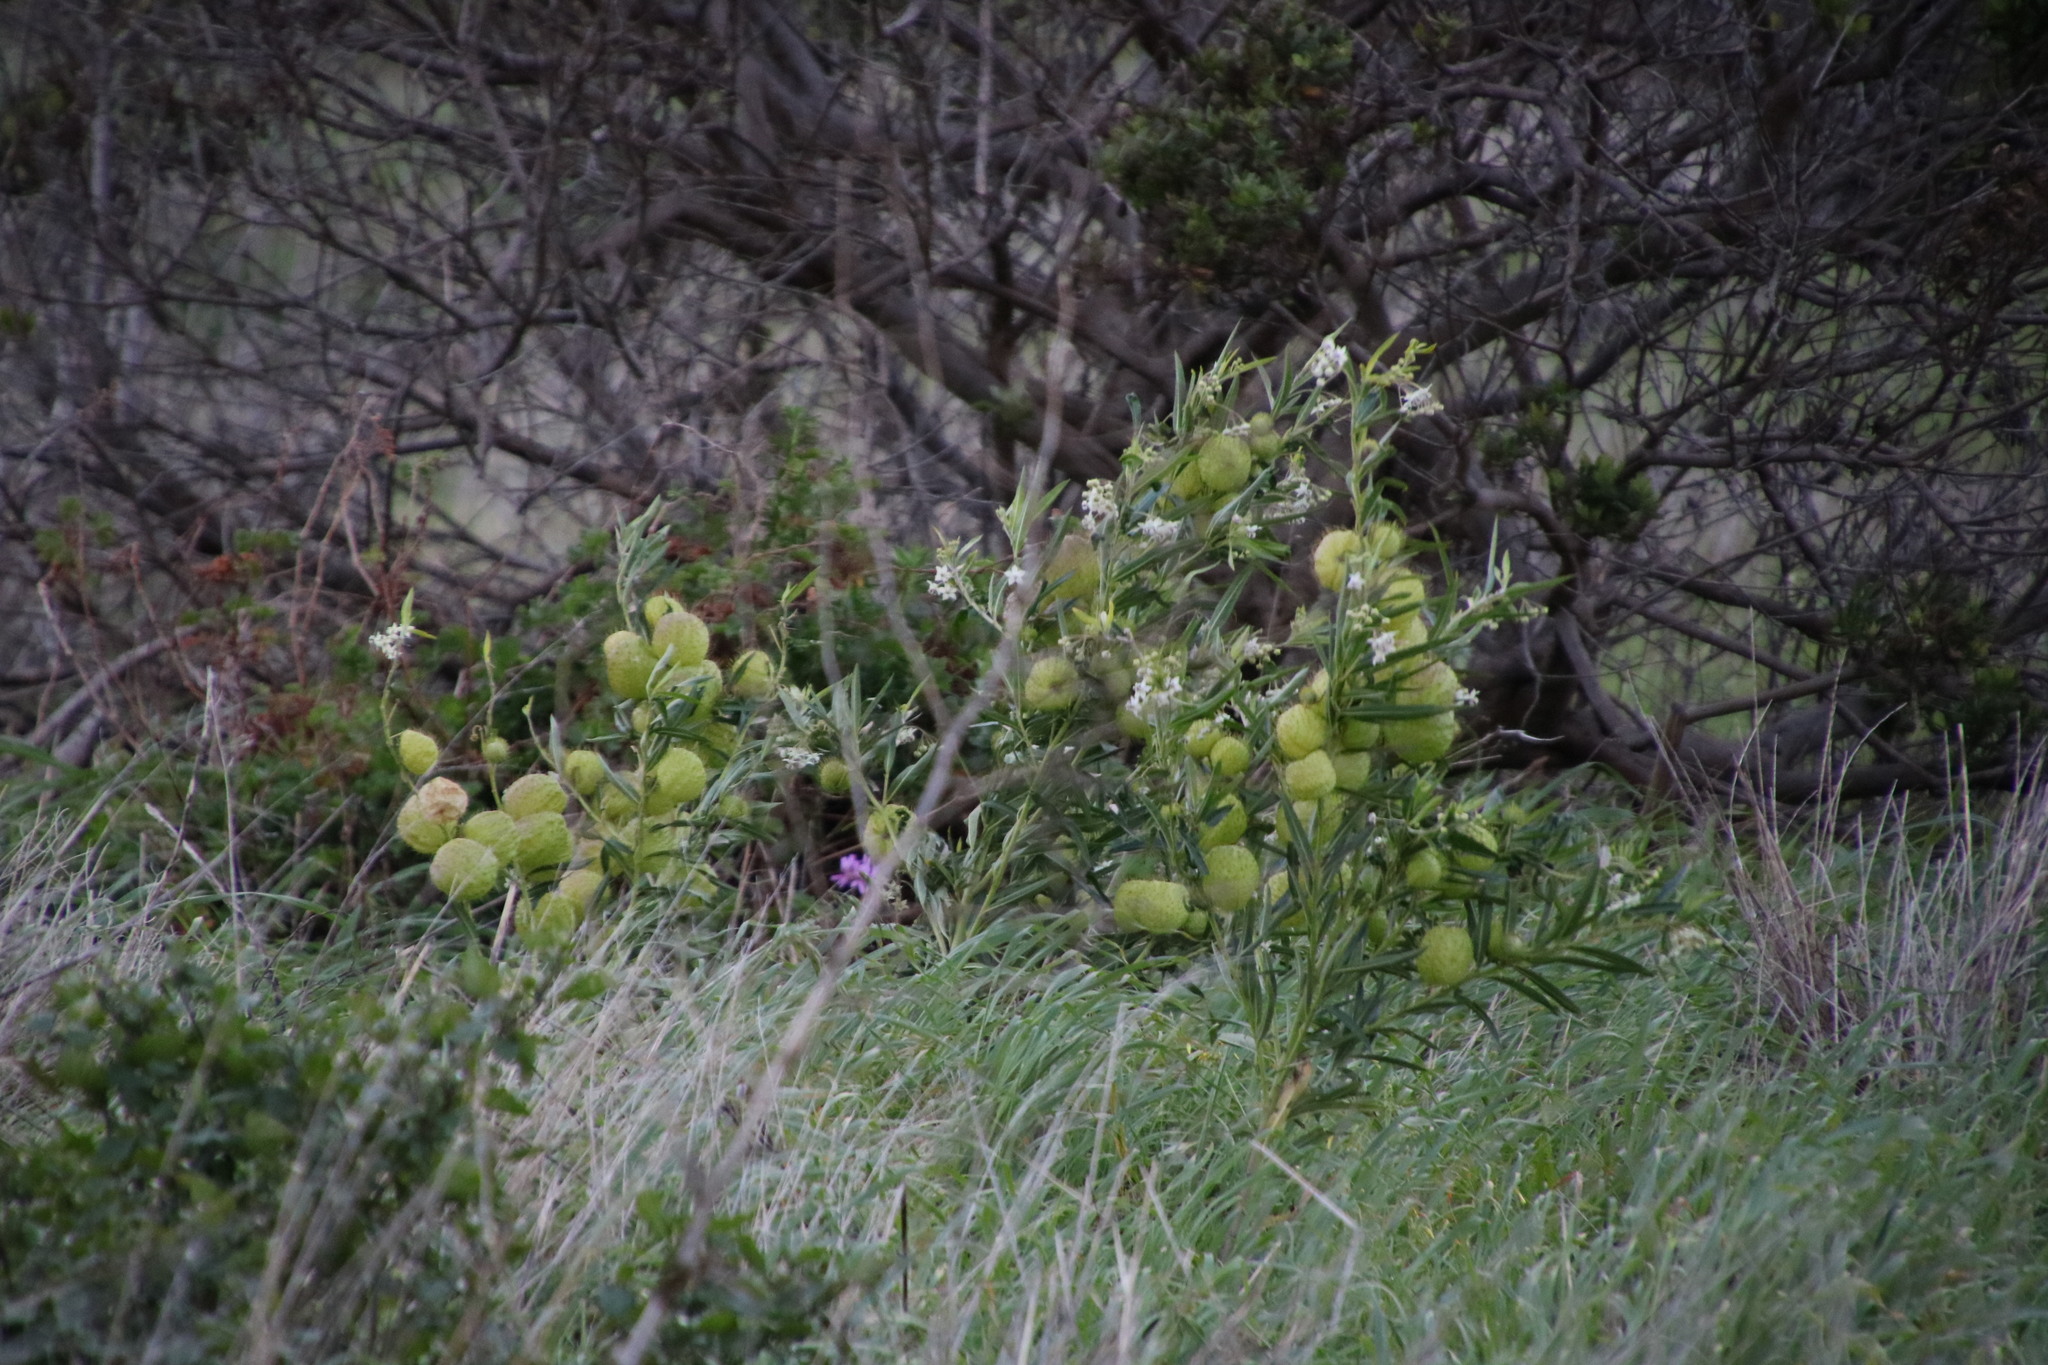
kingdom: Plantae
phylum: Tracheophyta
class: Magnoliopsida
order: Gentianales
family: Apocynaceae
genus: Gomphocarpus
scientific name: Gomphocarpus physocarpus
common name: Balloon cotton bush
